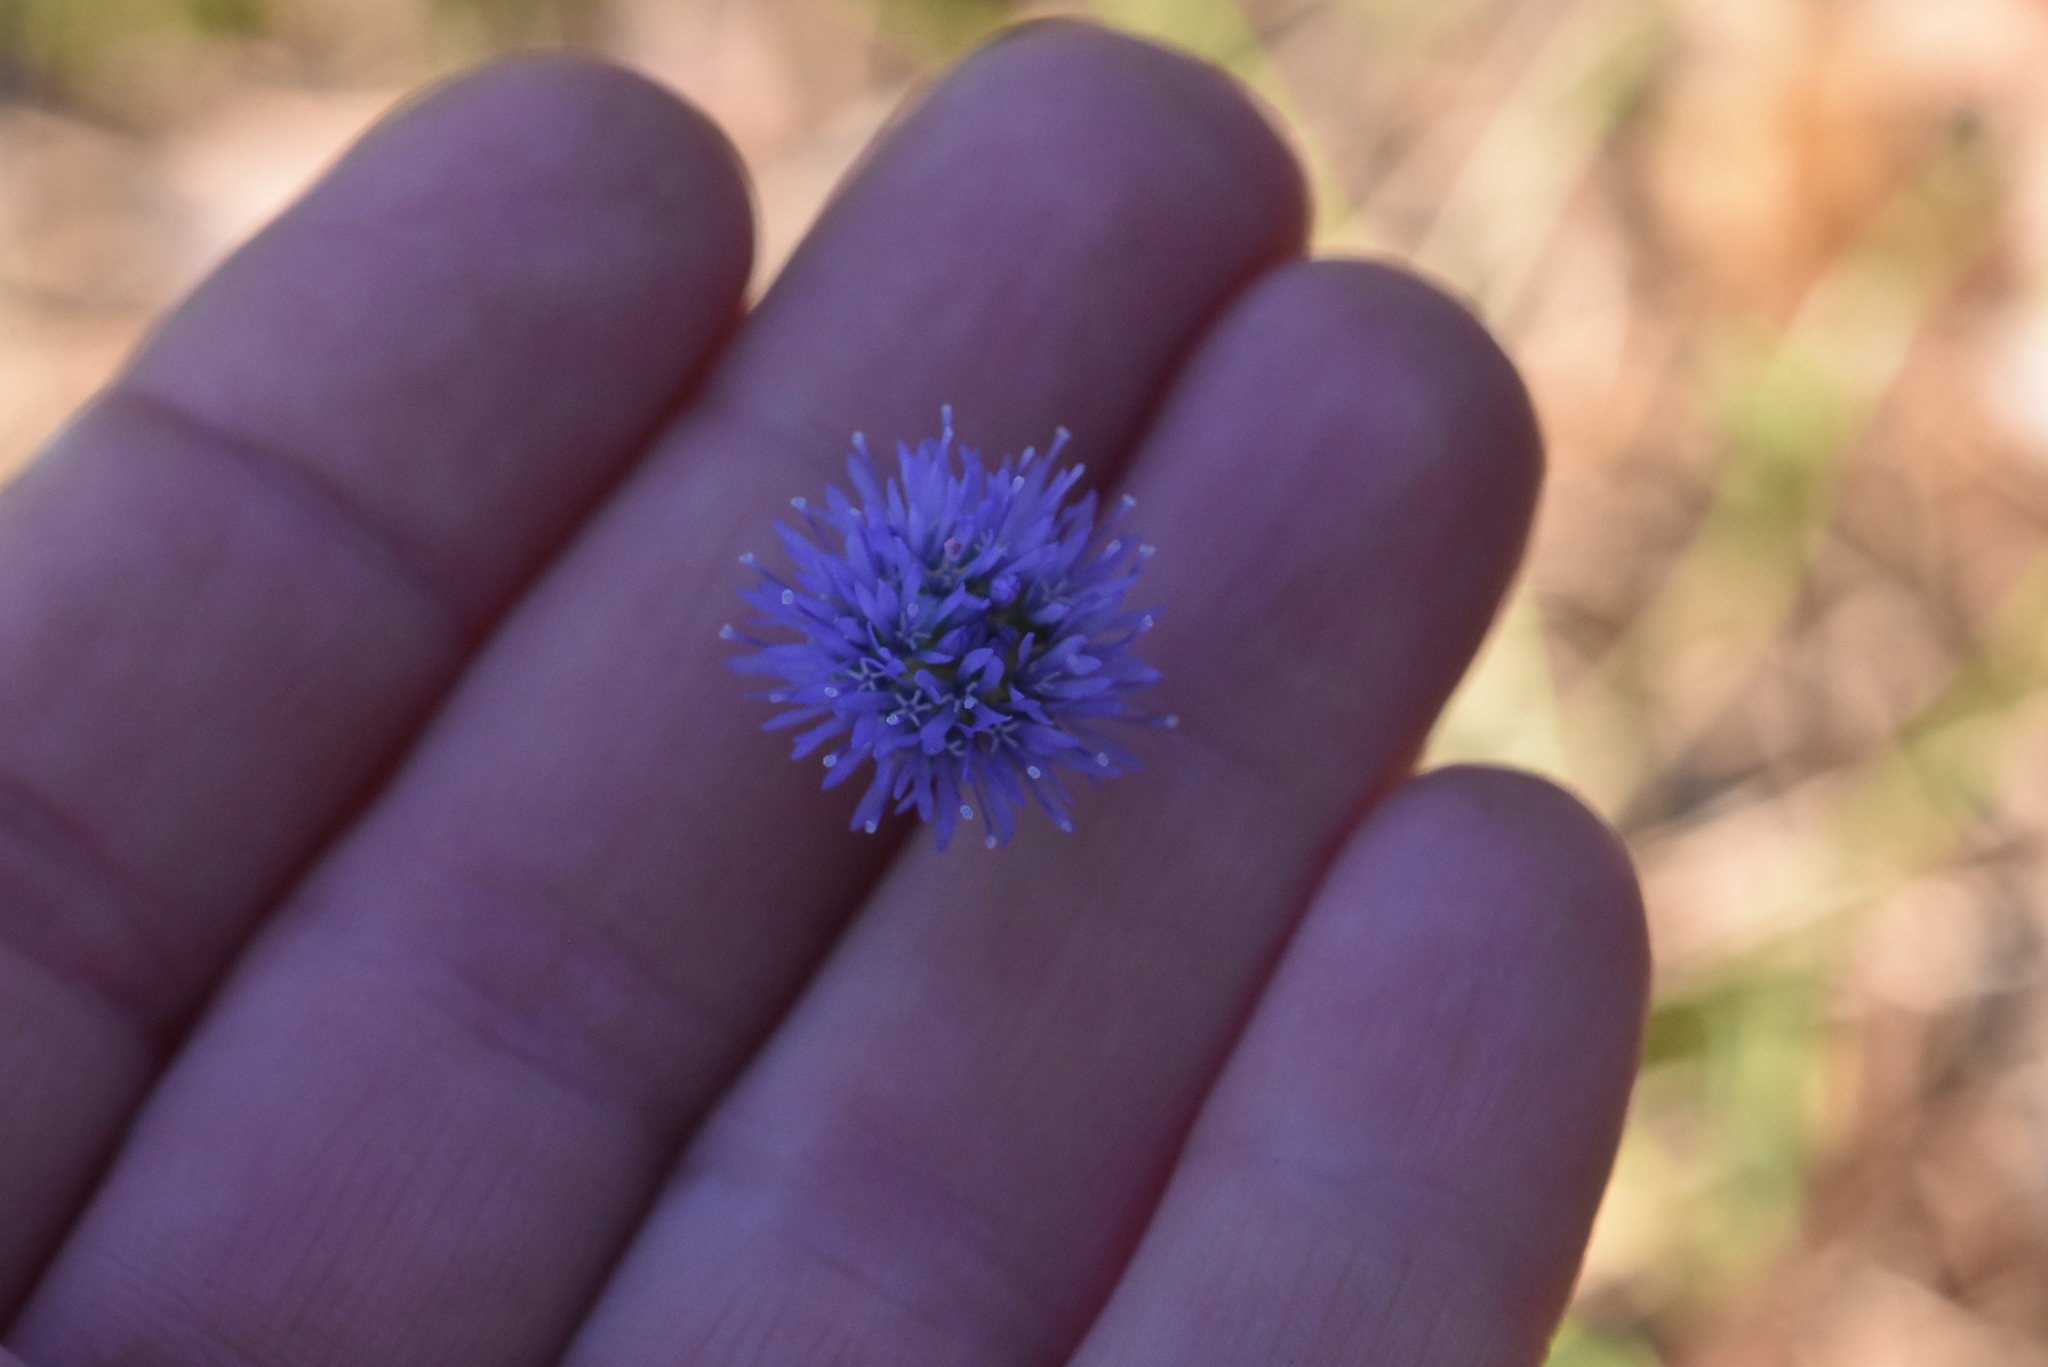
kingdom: Plantae
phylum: Tracheophyta
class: Magnoliopsida
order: Asterales
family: Campanulaceae
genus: Jasione
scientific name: Jasione montana
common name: Sheep's-bit
